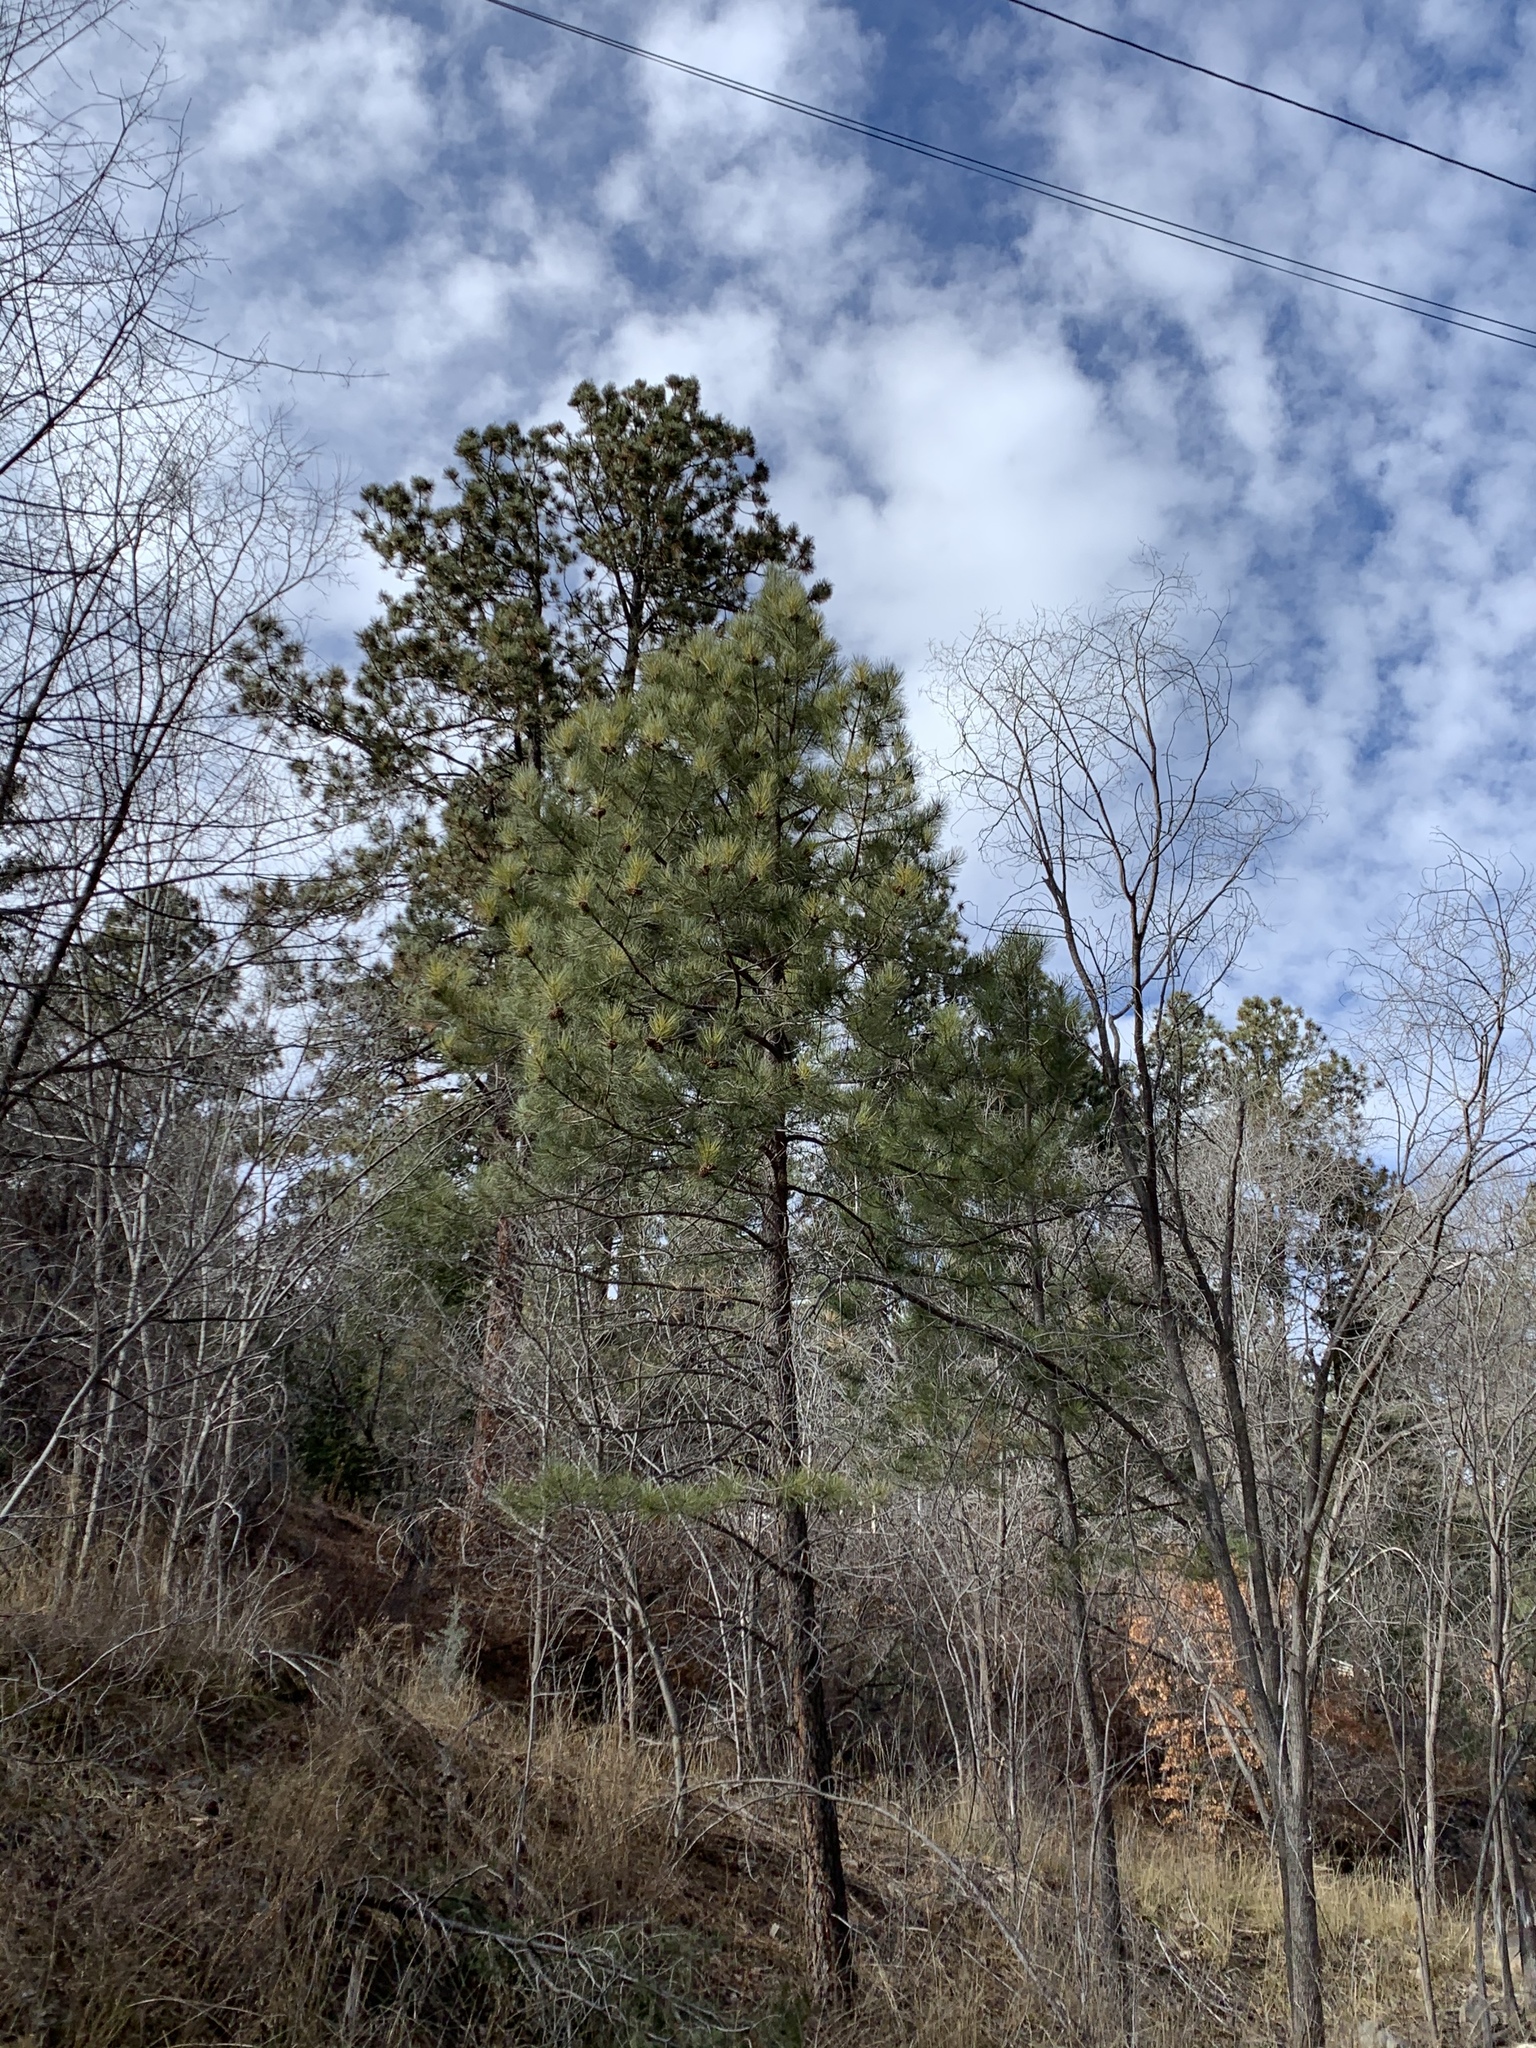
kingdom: Plantae
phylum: Tracheophyta
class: Pinopsida
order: Pinales
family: Pinaceae
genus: Pinus
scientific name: Pinus ponderosa
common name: Western yellow-pine
